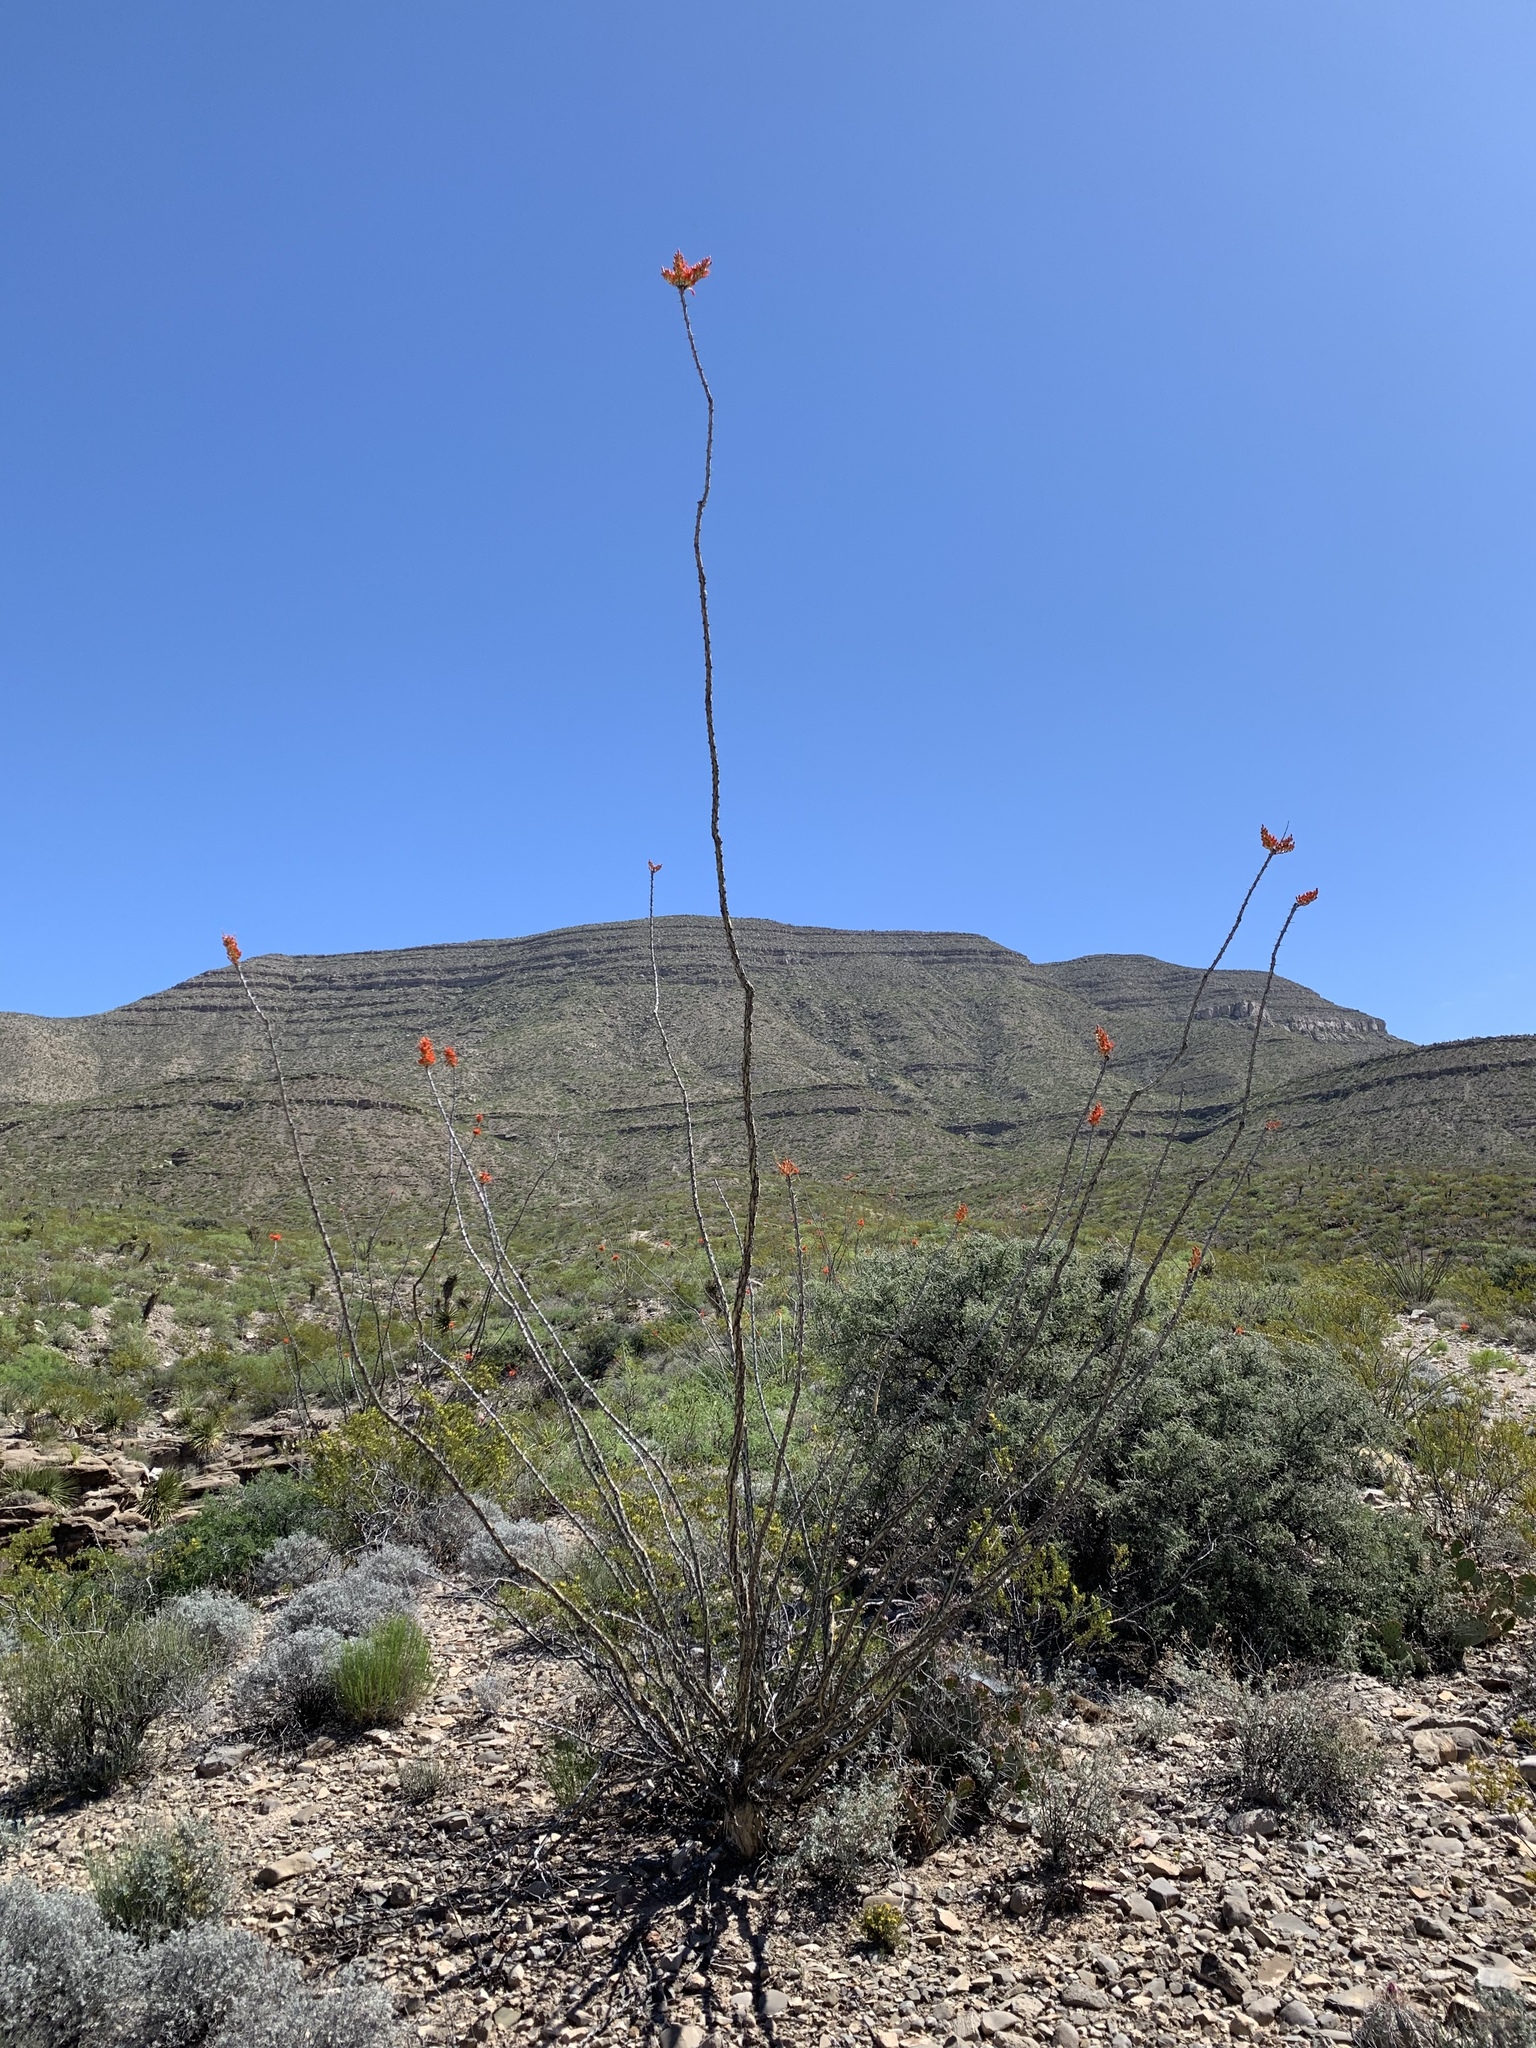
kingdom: Plantae
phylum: Tracheophyta
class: Magnoliopsida
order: Ericales
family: Fouquieriaceae
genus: Fouquieria
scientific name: Fouquieria splendens
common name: Vine-cactus
